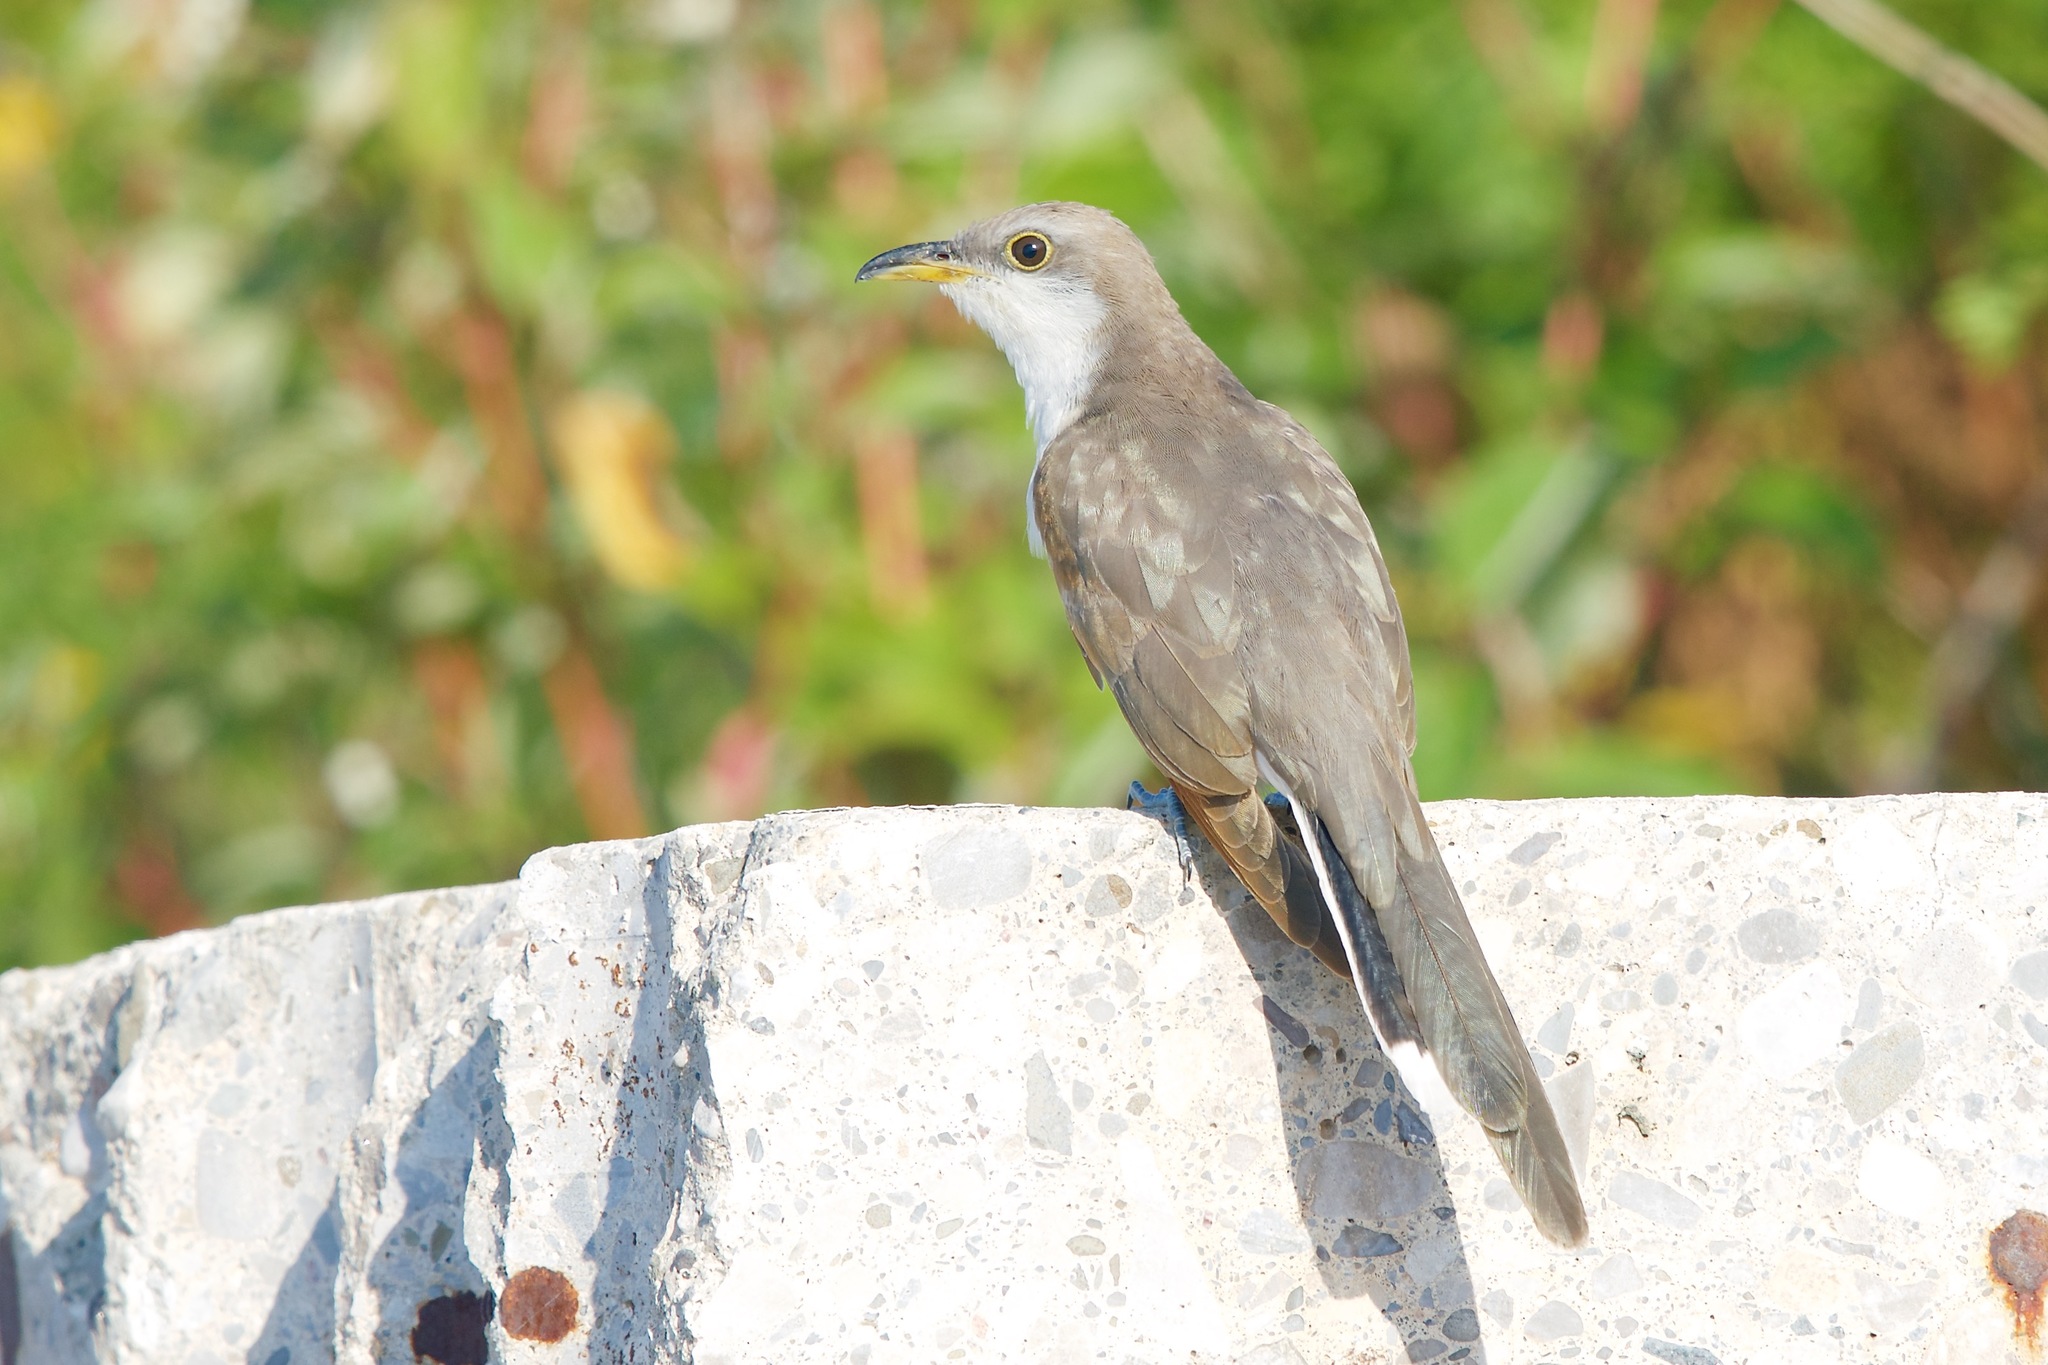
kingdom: Animalia
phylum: Chordata
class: Aves
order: Cuculiformes
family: Cuculidae
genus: Coccyzus
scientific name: Coccyzus americanus
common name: Yellow-billed cuckoo
